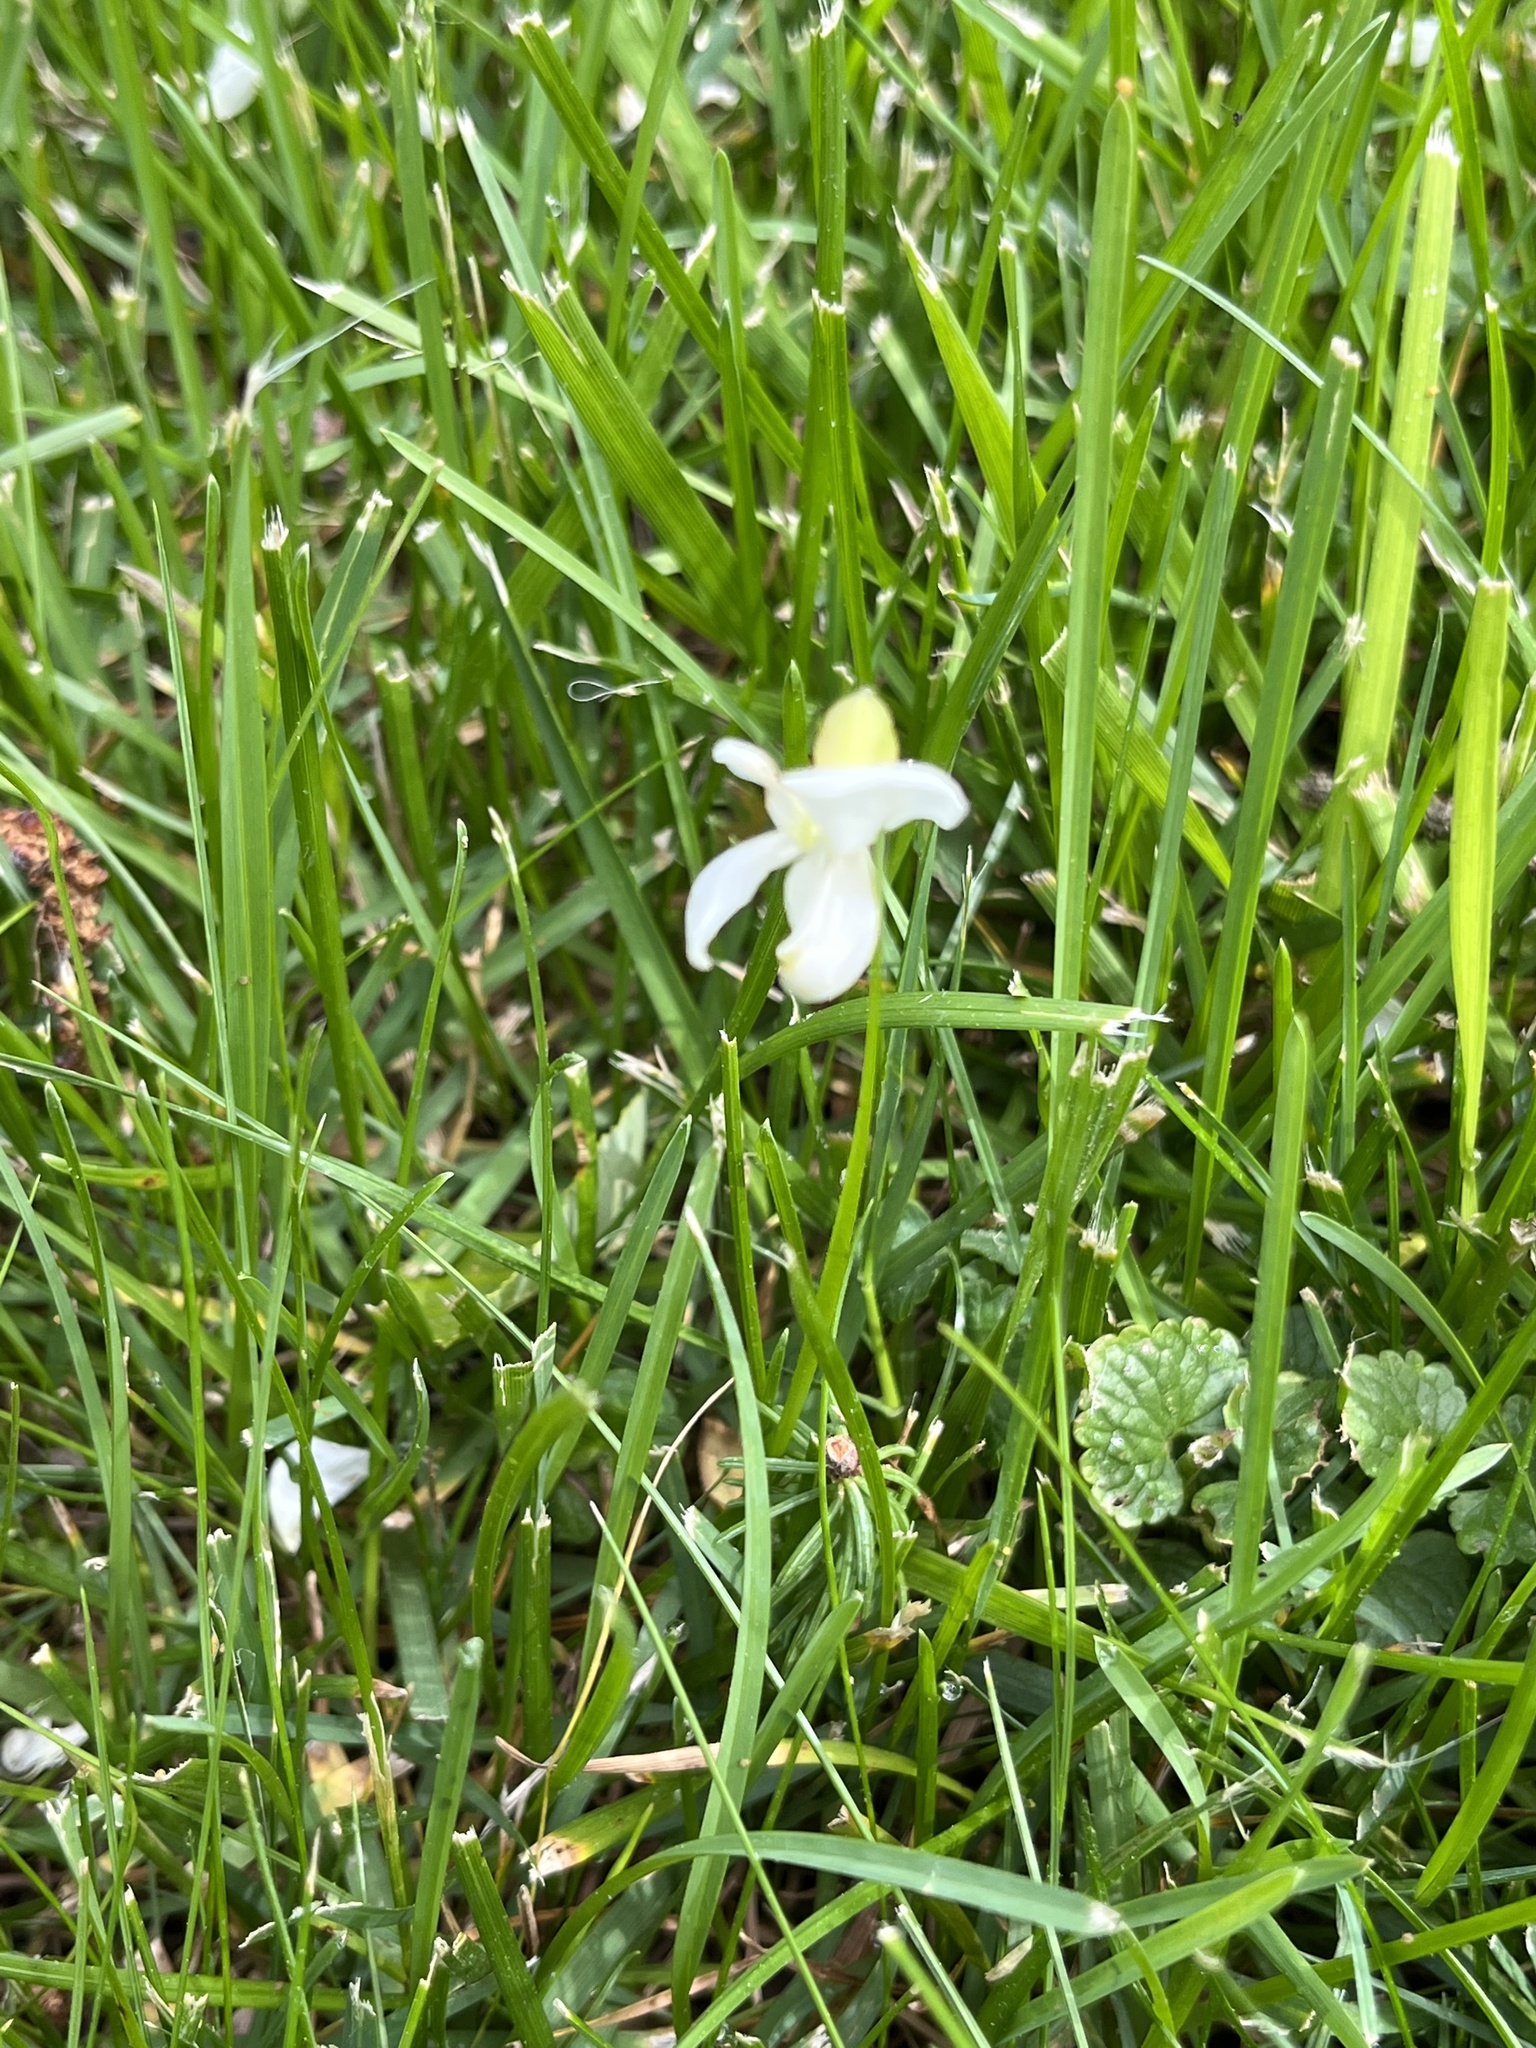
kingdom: Plantae
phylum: Tracheophyta
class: Magnoliopsida
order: Fabales
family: Fabaceae
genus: Robinia
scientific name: Robinia pseudoacacia
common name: Black locust
